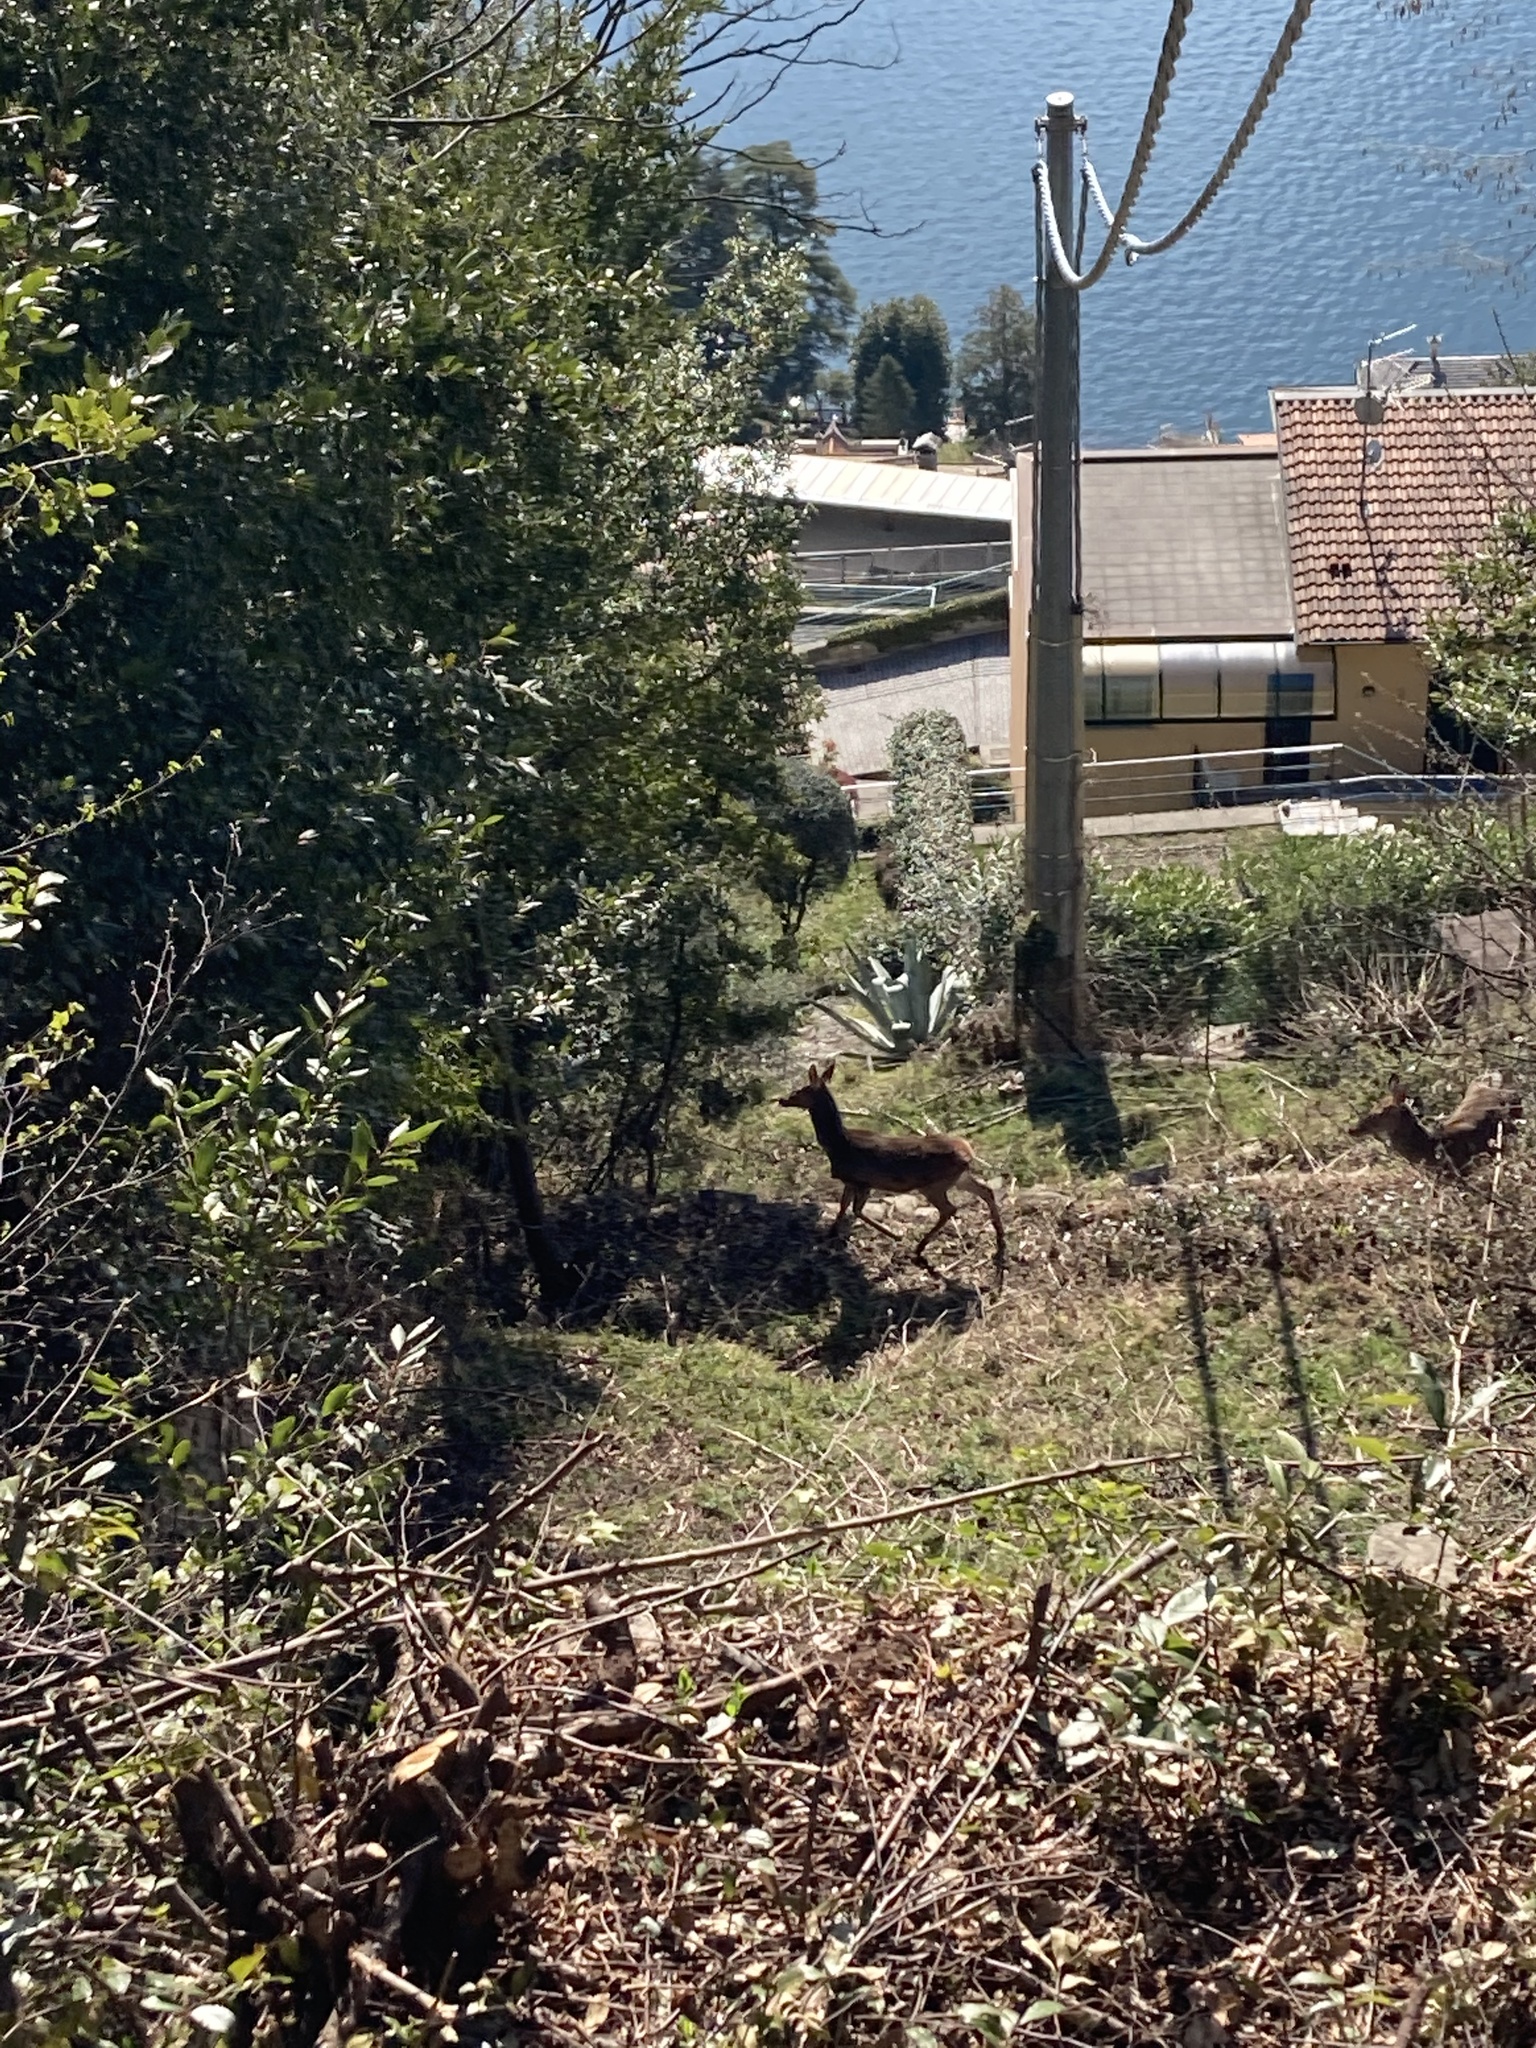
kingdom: Animalia
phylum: Chordata
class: Mammalia
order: Artiodactyla
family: Cervidae
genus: Cervus
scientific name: Cervus elaphus
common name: Red deer
